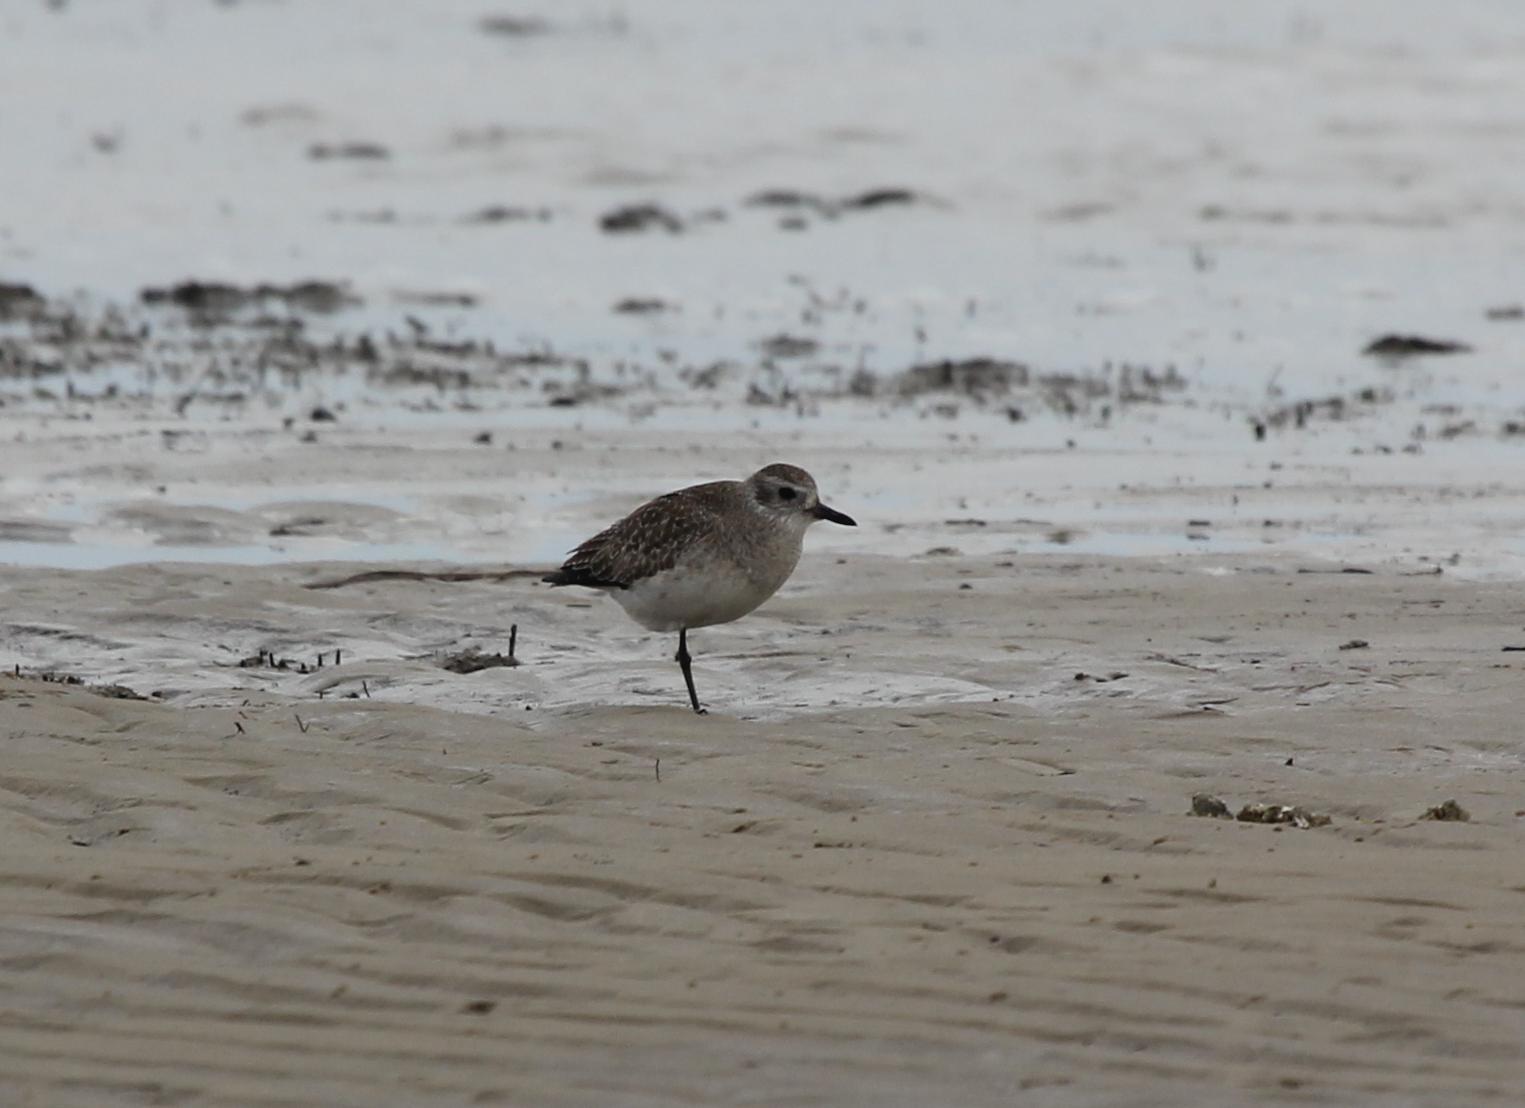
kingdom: Animalia
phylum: Chordata
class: Aves
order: Charadriiformes
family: Charadriidae
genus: Pluvialis
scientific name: Pluvialis squatarola
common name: Grey plover
